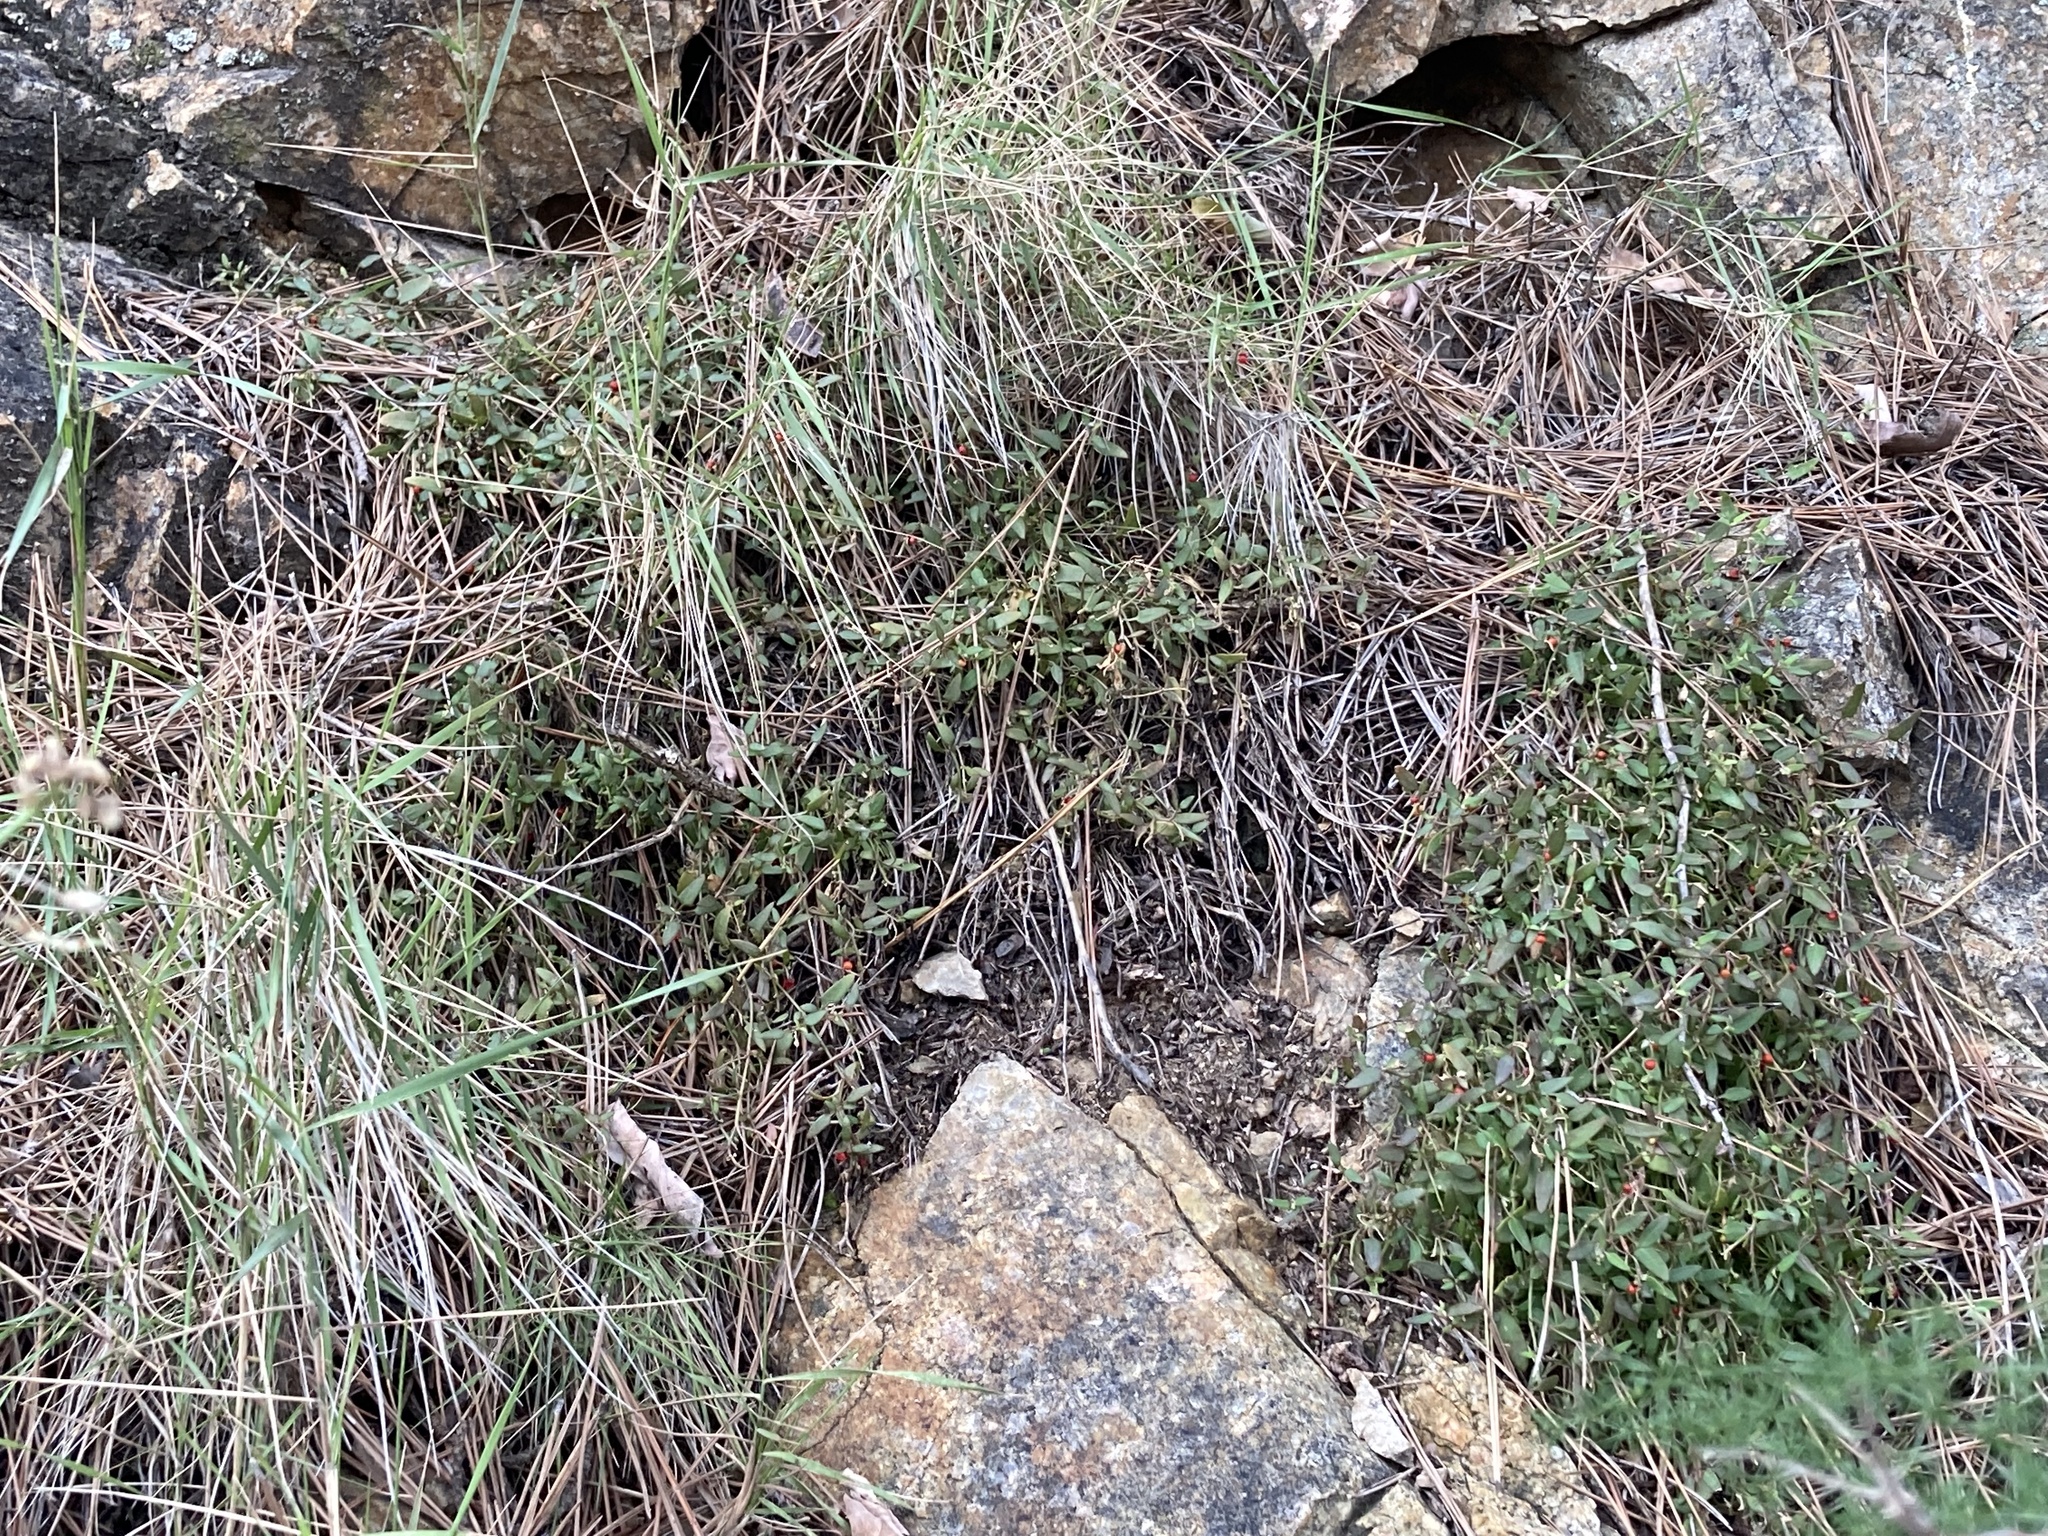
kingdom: Plantae
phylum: Tracheophyta
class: Magnoliopsida
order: Caryophyllales
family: Aizoaceae
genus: Carpobrotus
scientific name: Carpobrotus edulis
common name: Hottentot-fig
